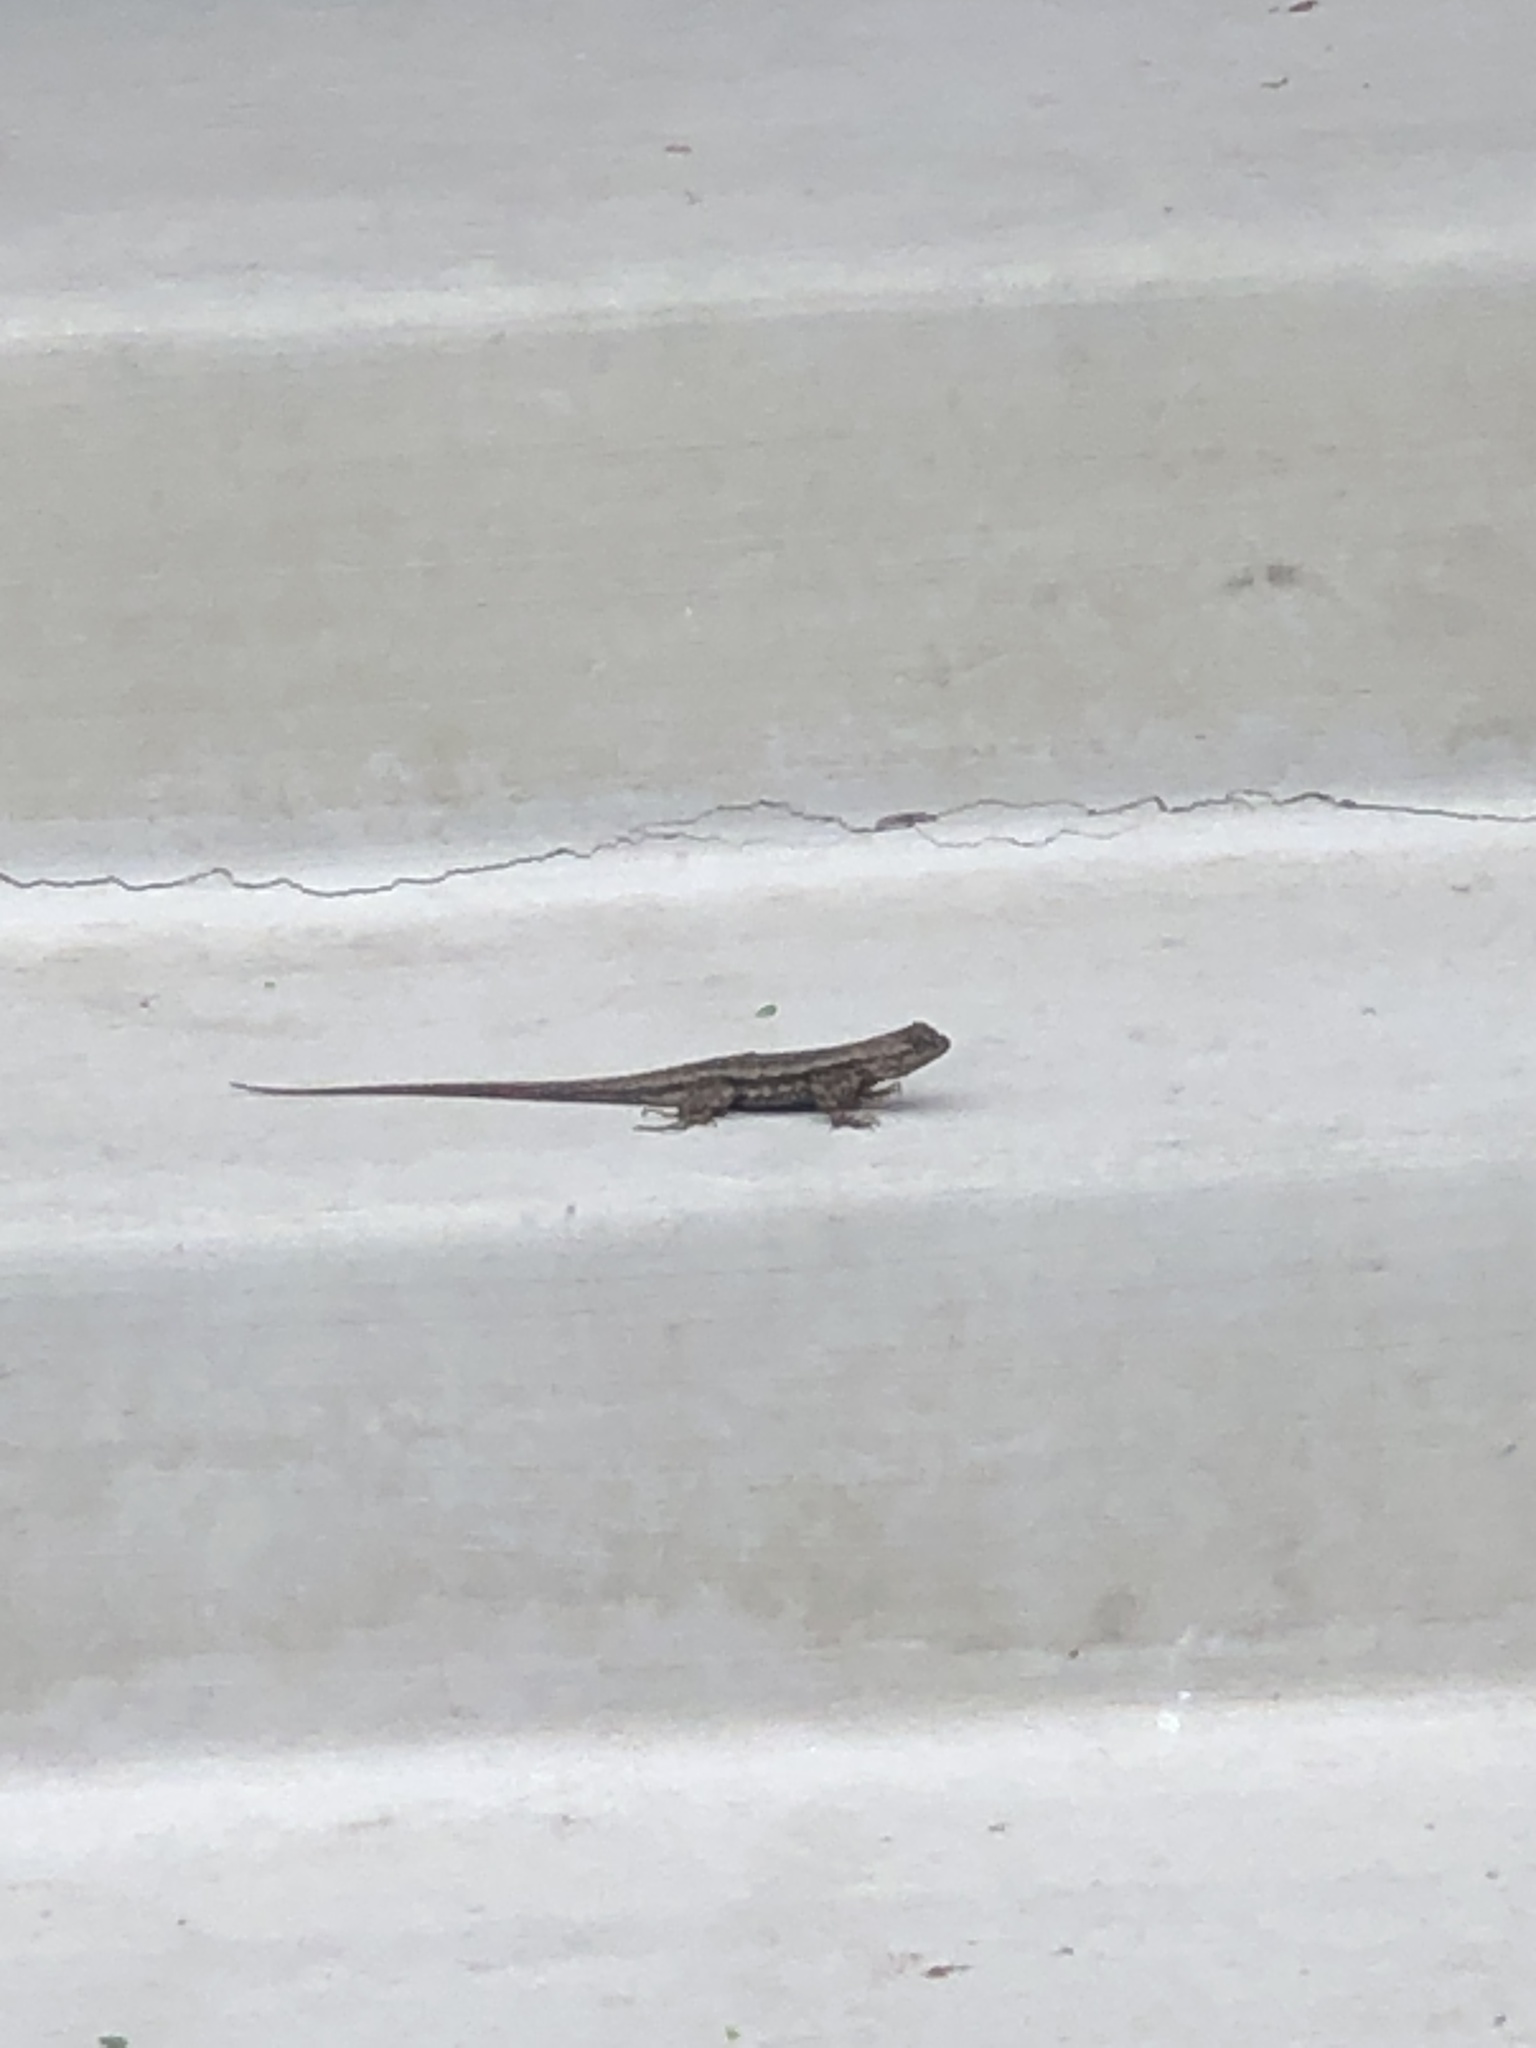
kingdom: Animalia
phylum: Chordata
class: Squamata
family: Phrynosomatidae
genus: Sceloporus
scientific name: Sceloporus occidentalis
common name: Western fence lizard
